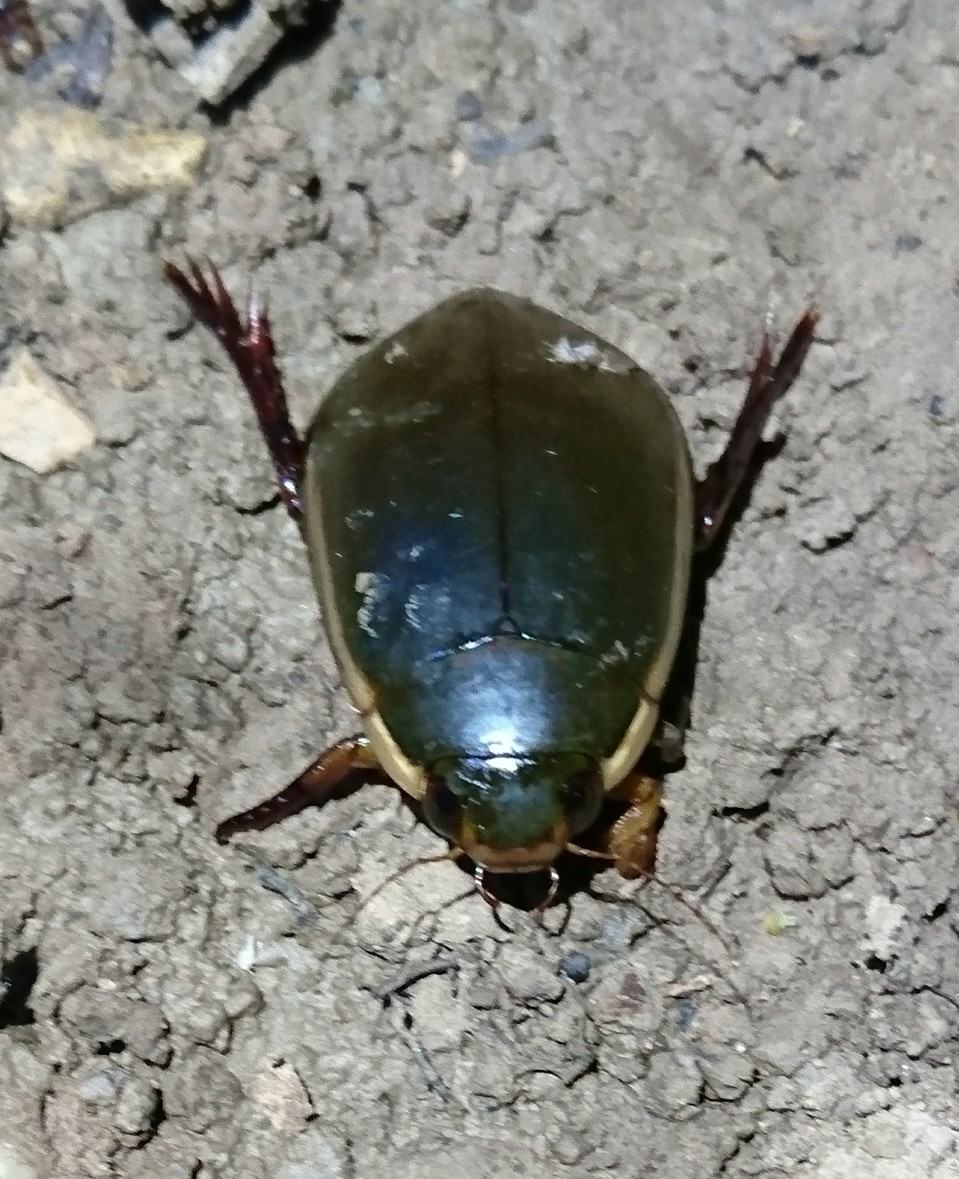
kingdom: Animalia
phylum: Arthropoda
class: Insecta
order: Coleoptera
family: Dytiscidae
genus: Cybister
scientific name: Cybister fimbriolatus
